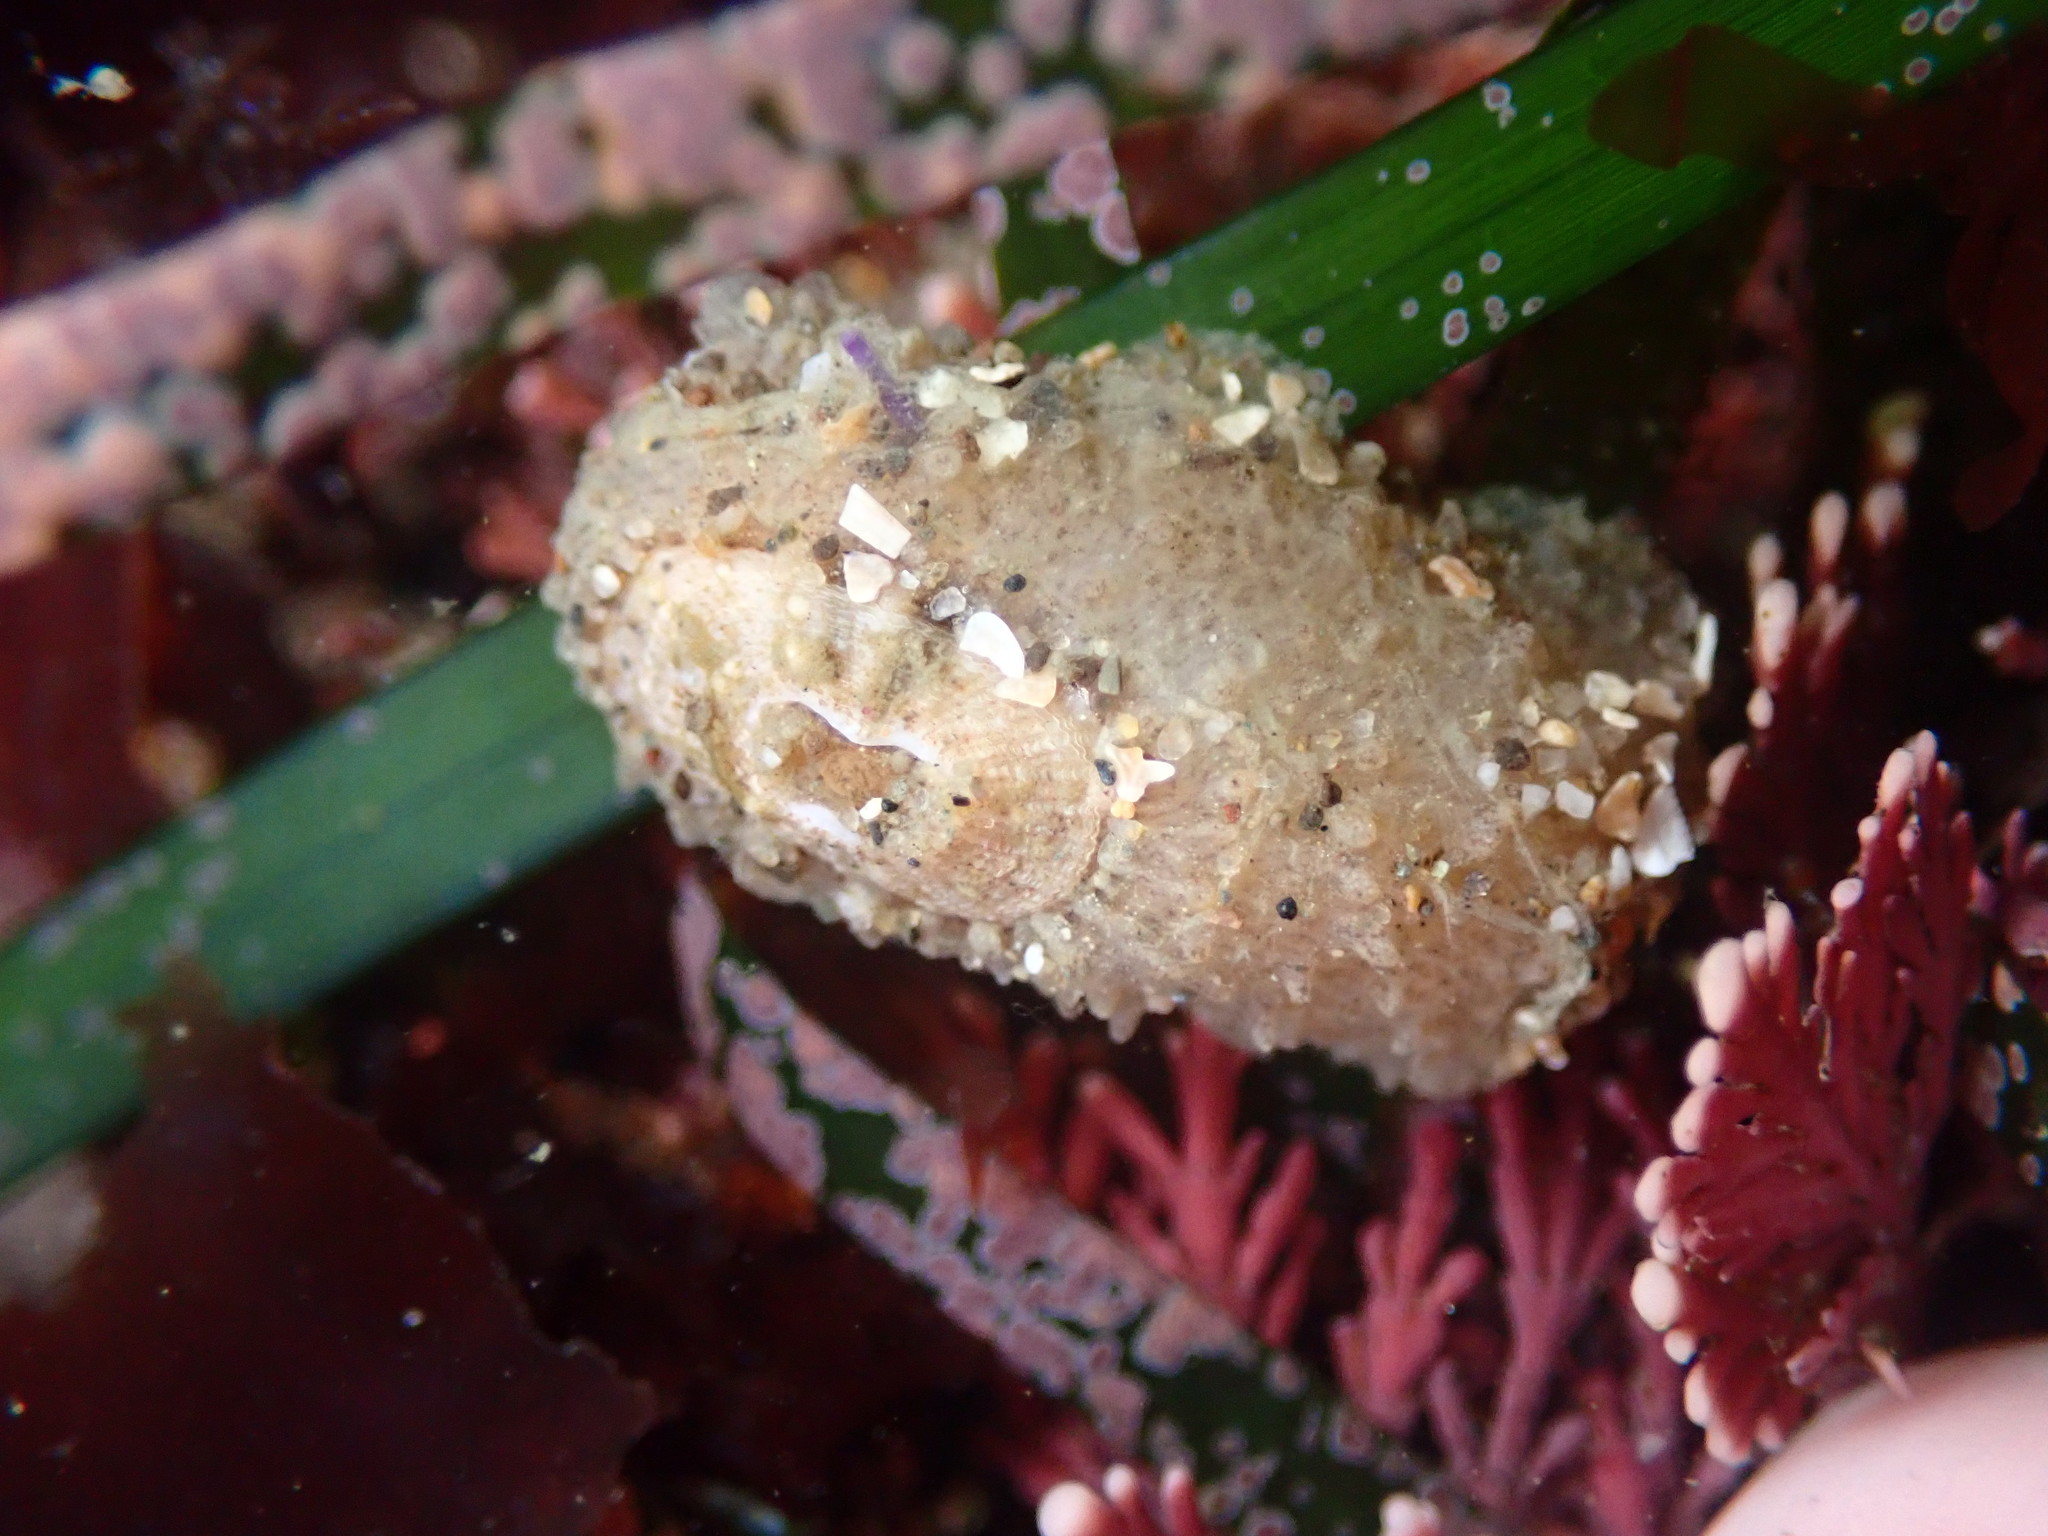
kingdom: Animalia
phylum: Mollusca
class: Gastropoda
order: Lepetellida
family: Fissurellidae
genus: Fissurellidea
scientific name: Fissurellidea bimaculata
